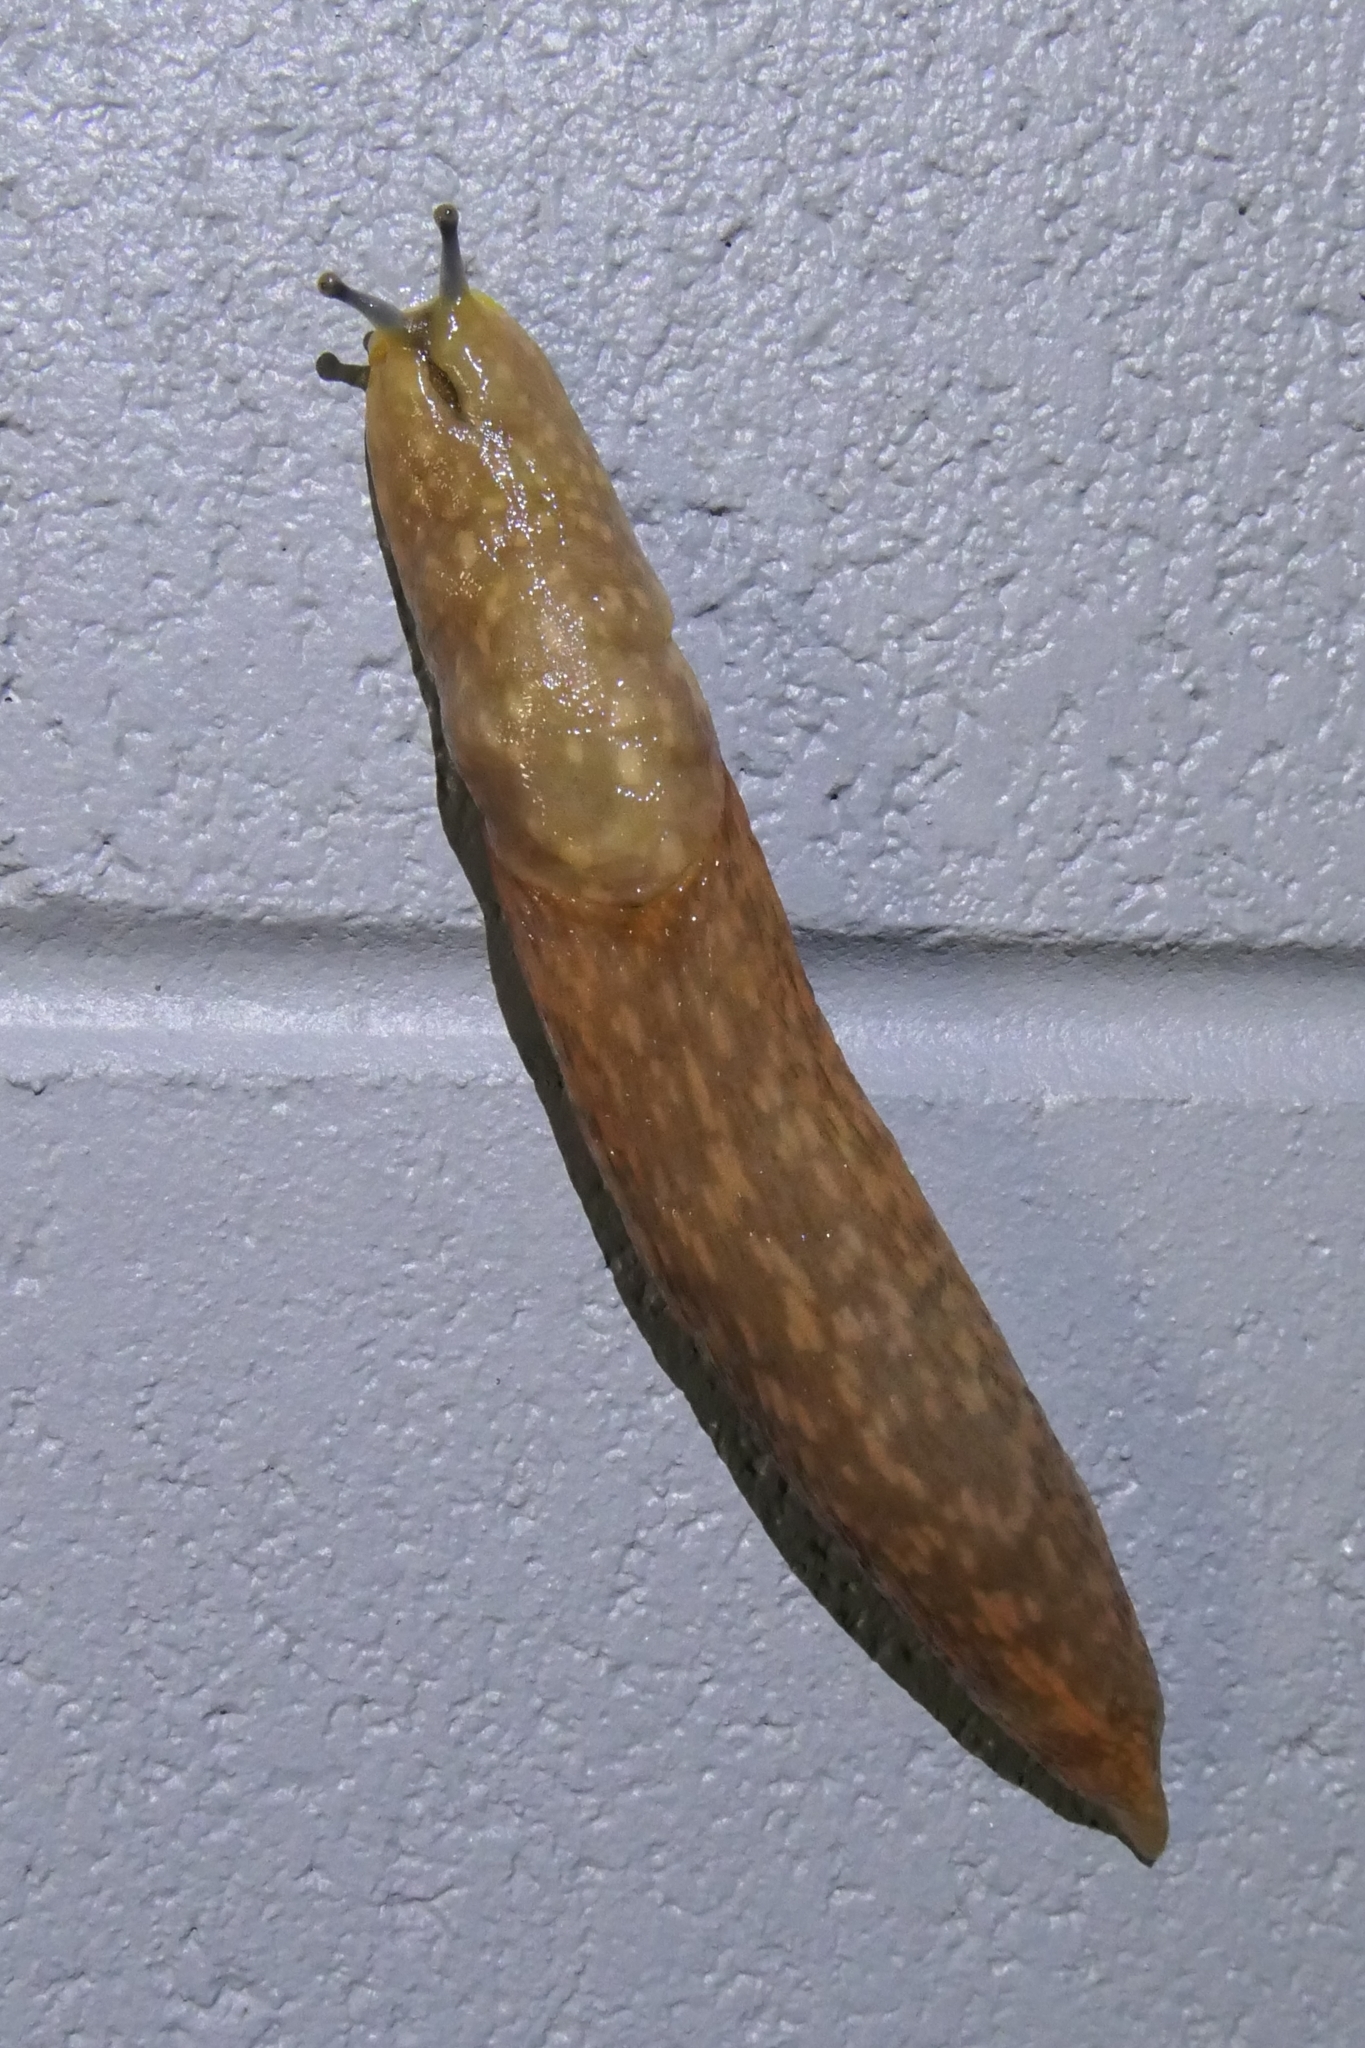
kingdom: Animalia
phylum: Mollusca
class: Gastropoda
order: Stylommatophora
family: Limacidae
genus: Limacus
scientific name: Limacus flavus
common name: Yellow gardenslug
